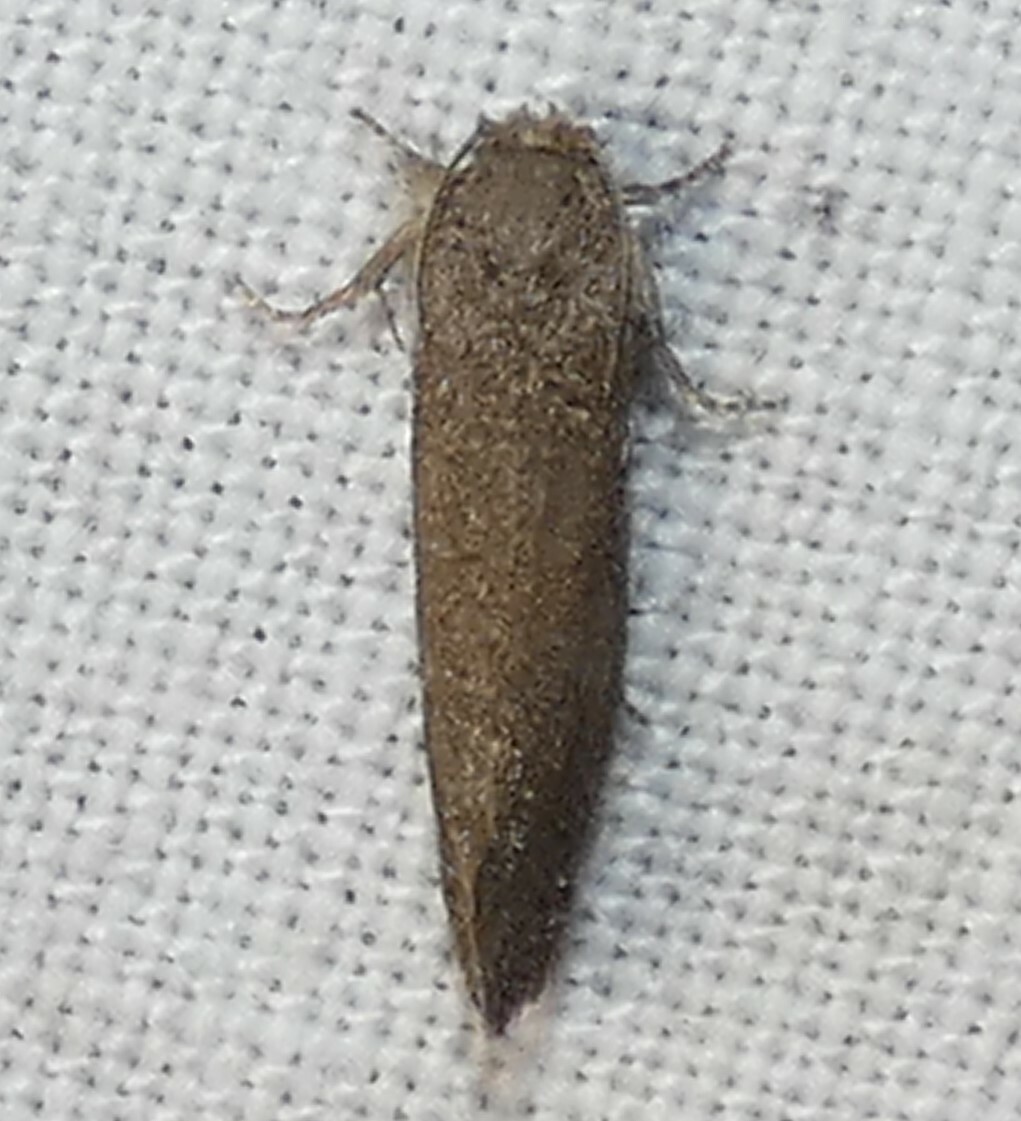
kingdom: Animalia
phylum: Arthropoda
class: Insecta
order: Lepidoptera
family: Tineidae
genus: Acrolophus
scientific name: Acrolophus heppneri
